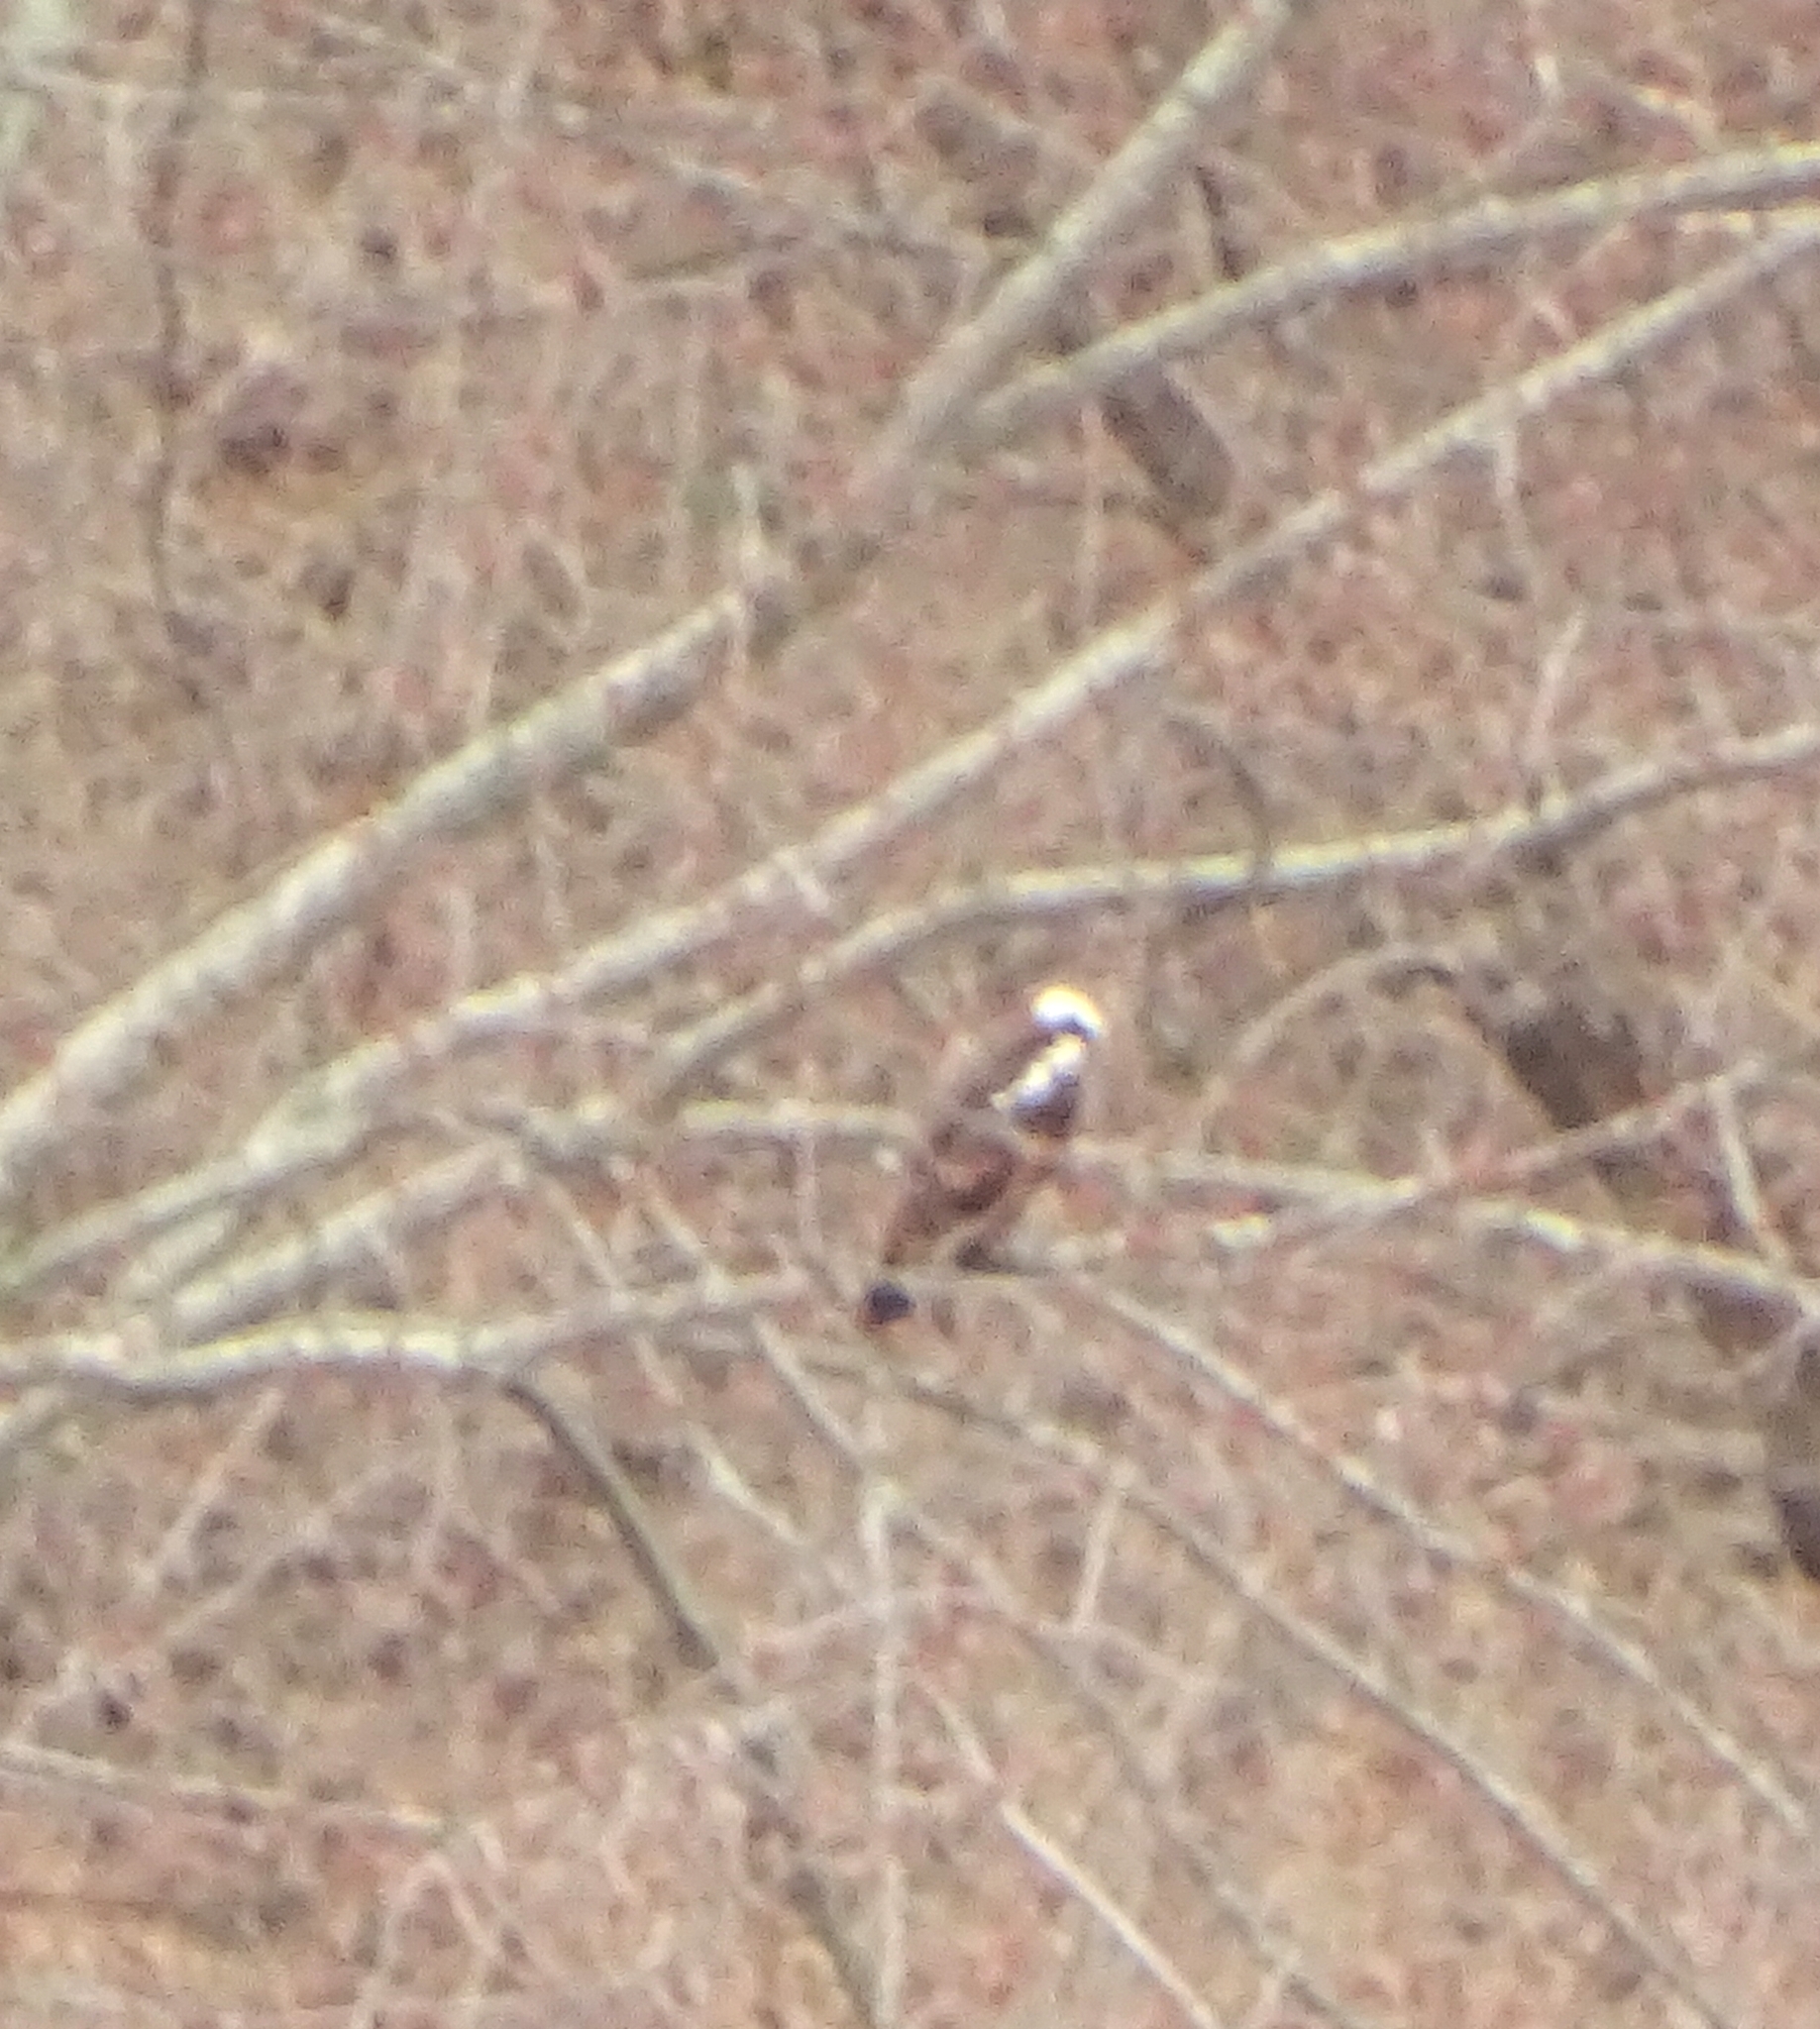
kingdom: Animalia
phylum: Chordata
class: Aves
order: Accipitriformes
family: Pandionidae
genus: Pandion
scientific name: Pandion haliaetus
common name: Osprey
